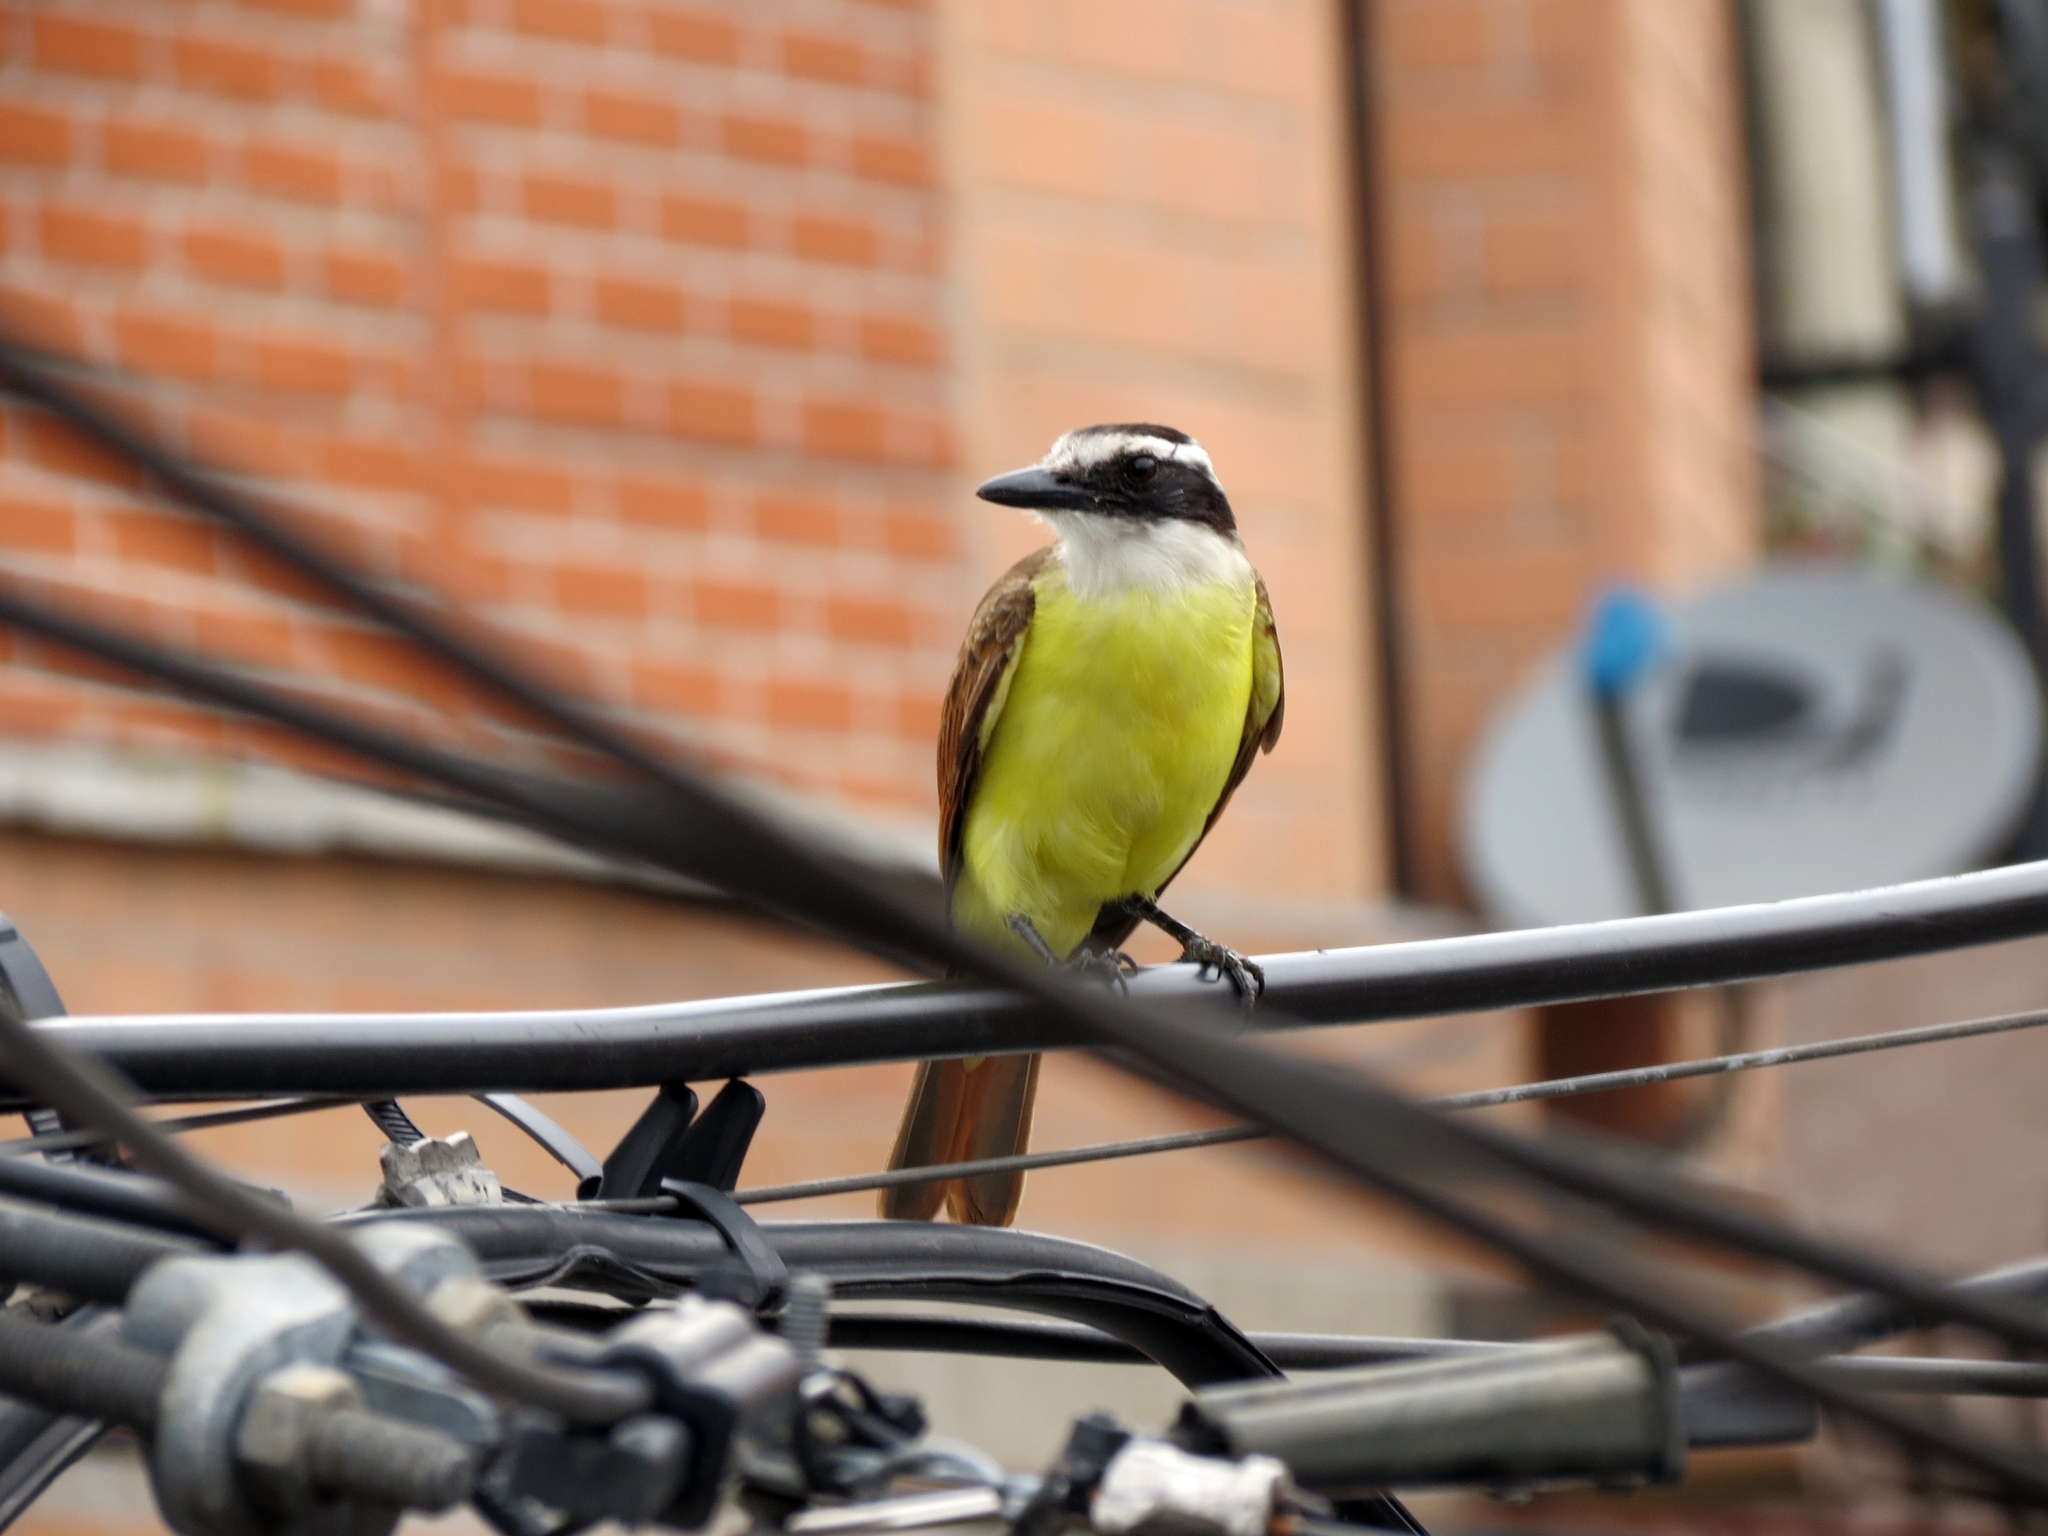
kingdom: Animalia
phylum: Chordata
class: Aves
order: Passeriformes
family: Tyrannidae
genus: Pitangus
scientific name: Pitangus sulphuratus
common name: Great kiskadee
